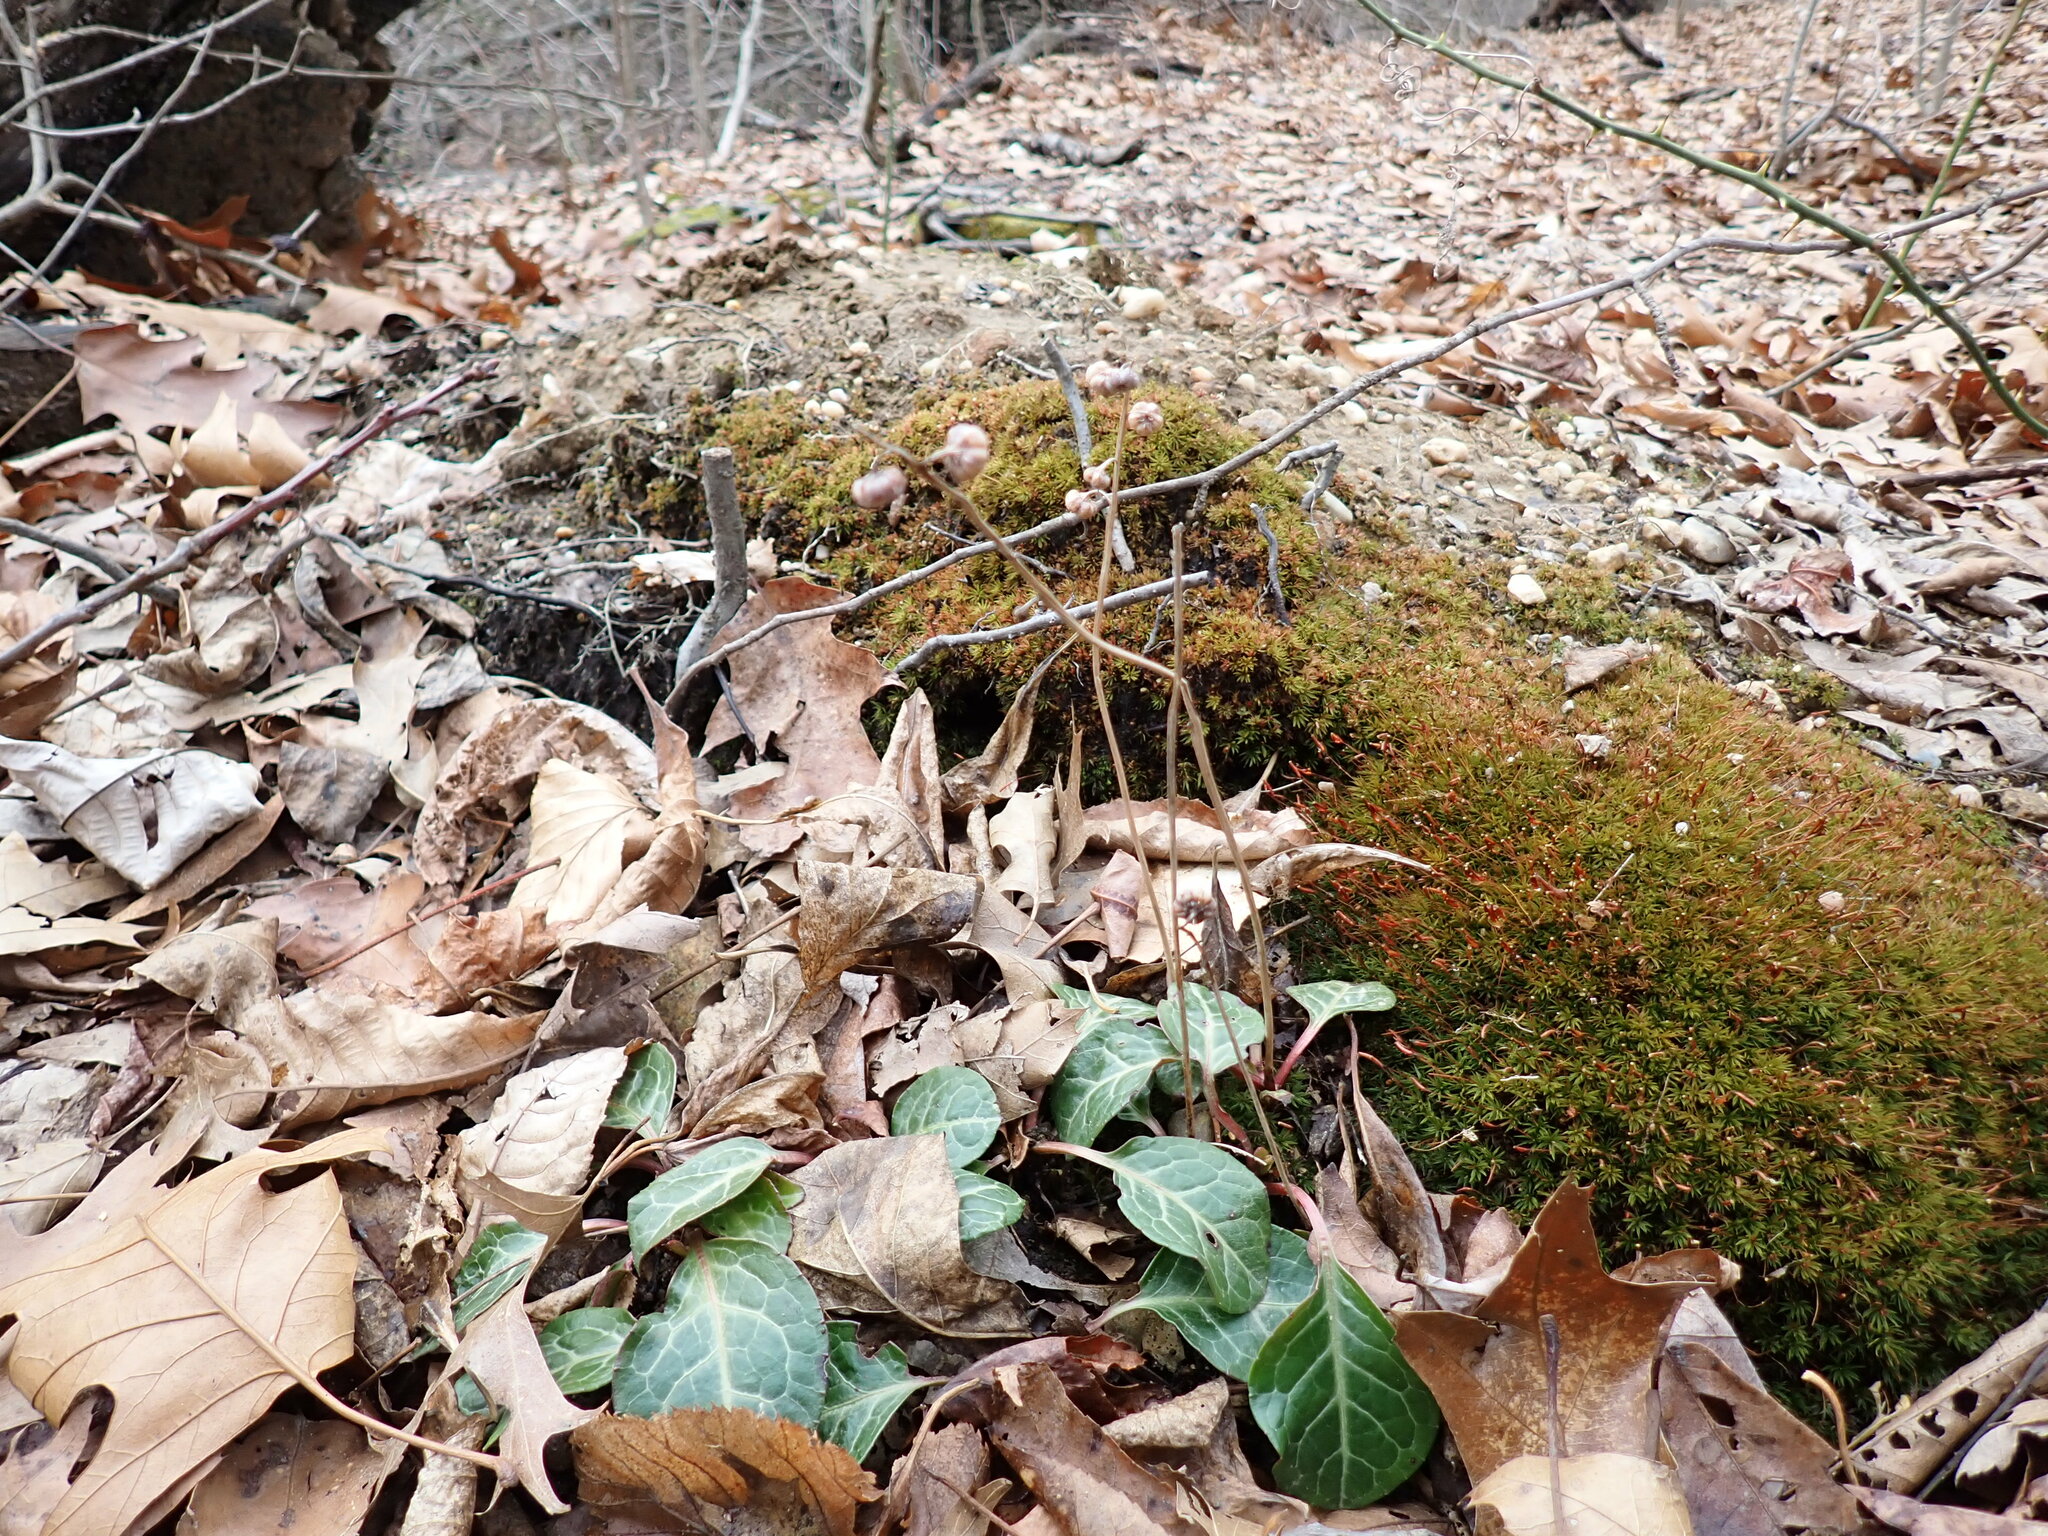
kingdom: Plantae
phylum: Tracheophyta
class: Magnoliopsida
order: Ericales
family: Ericaceae
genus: Pyrola
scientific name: Pyrola americana
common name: American wintergreen
